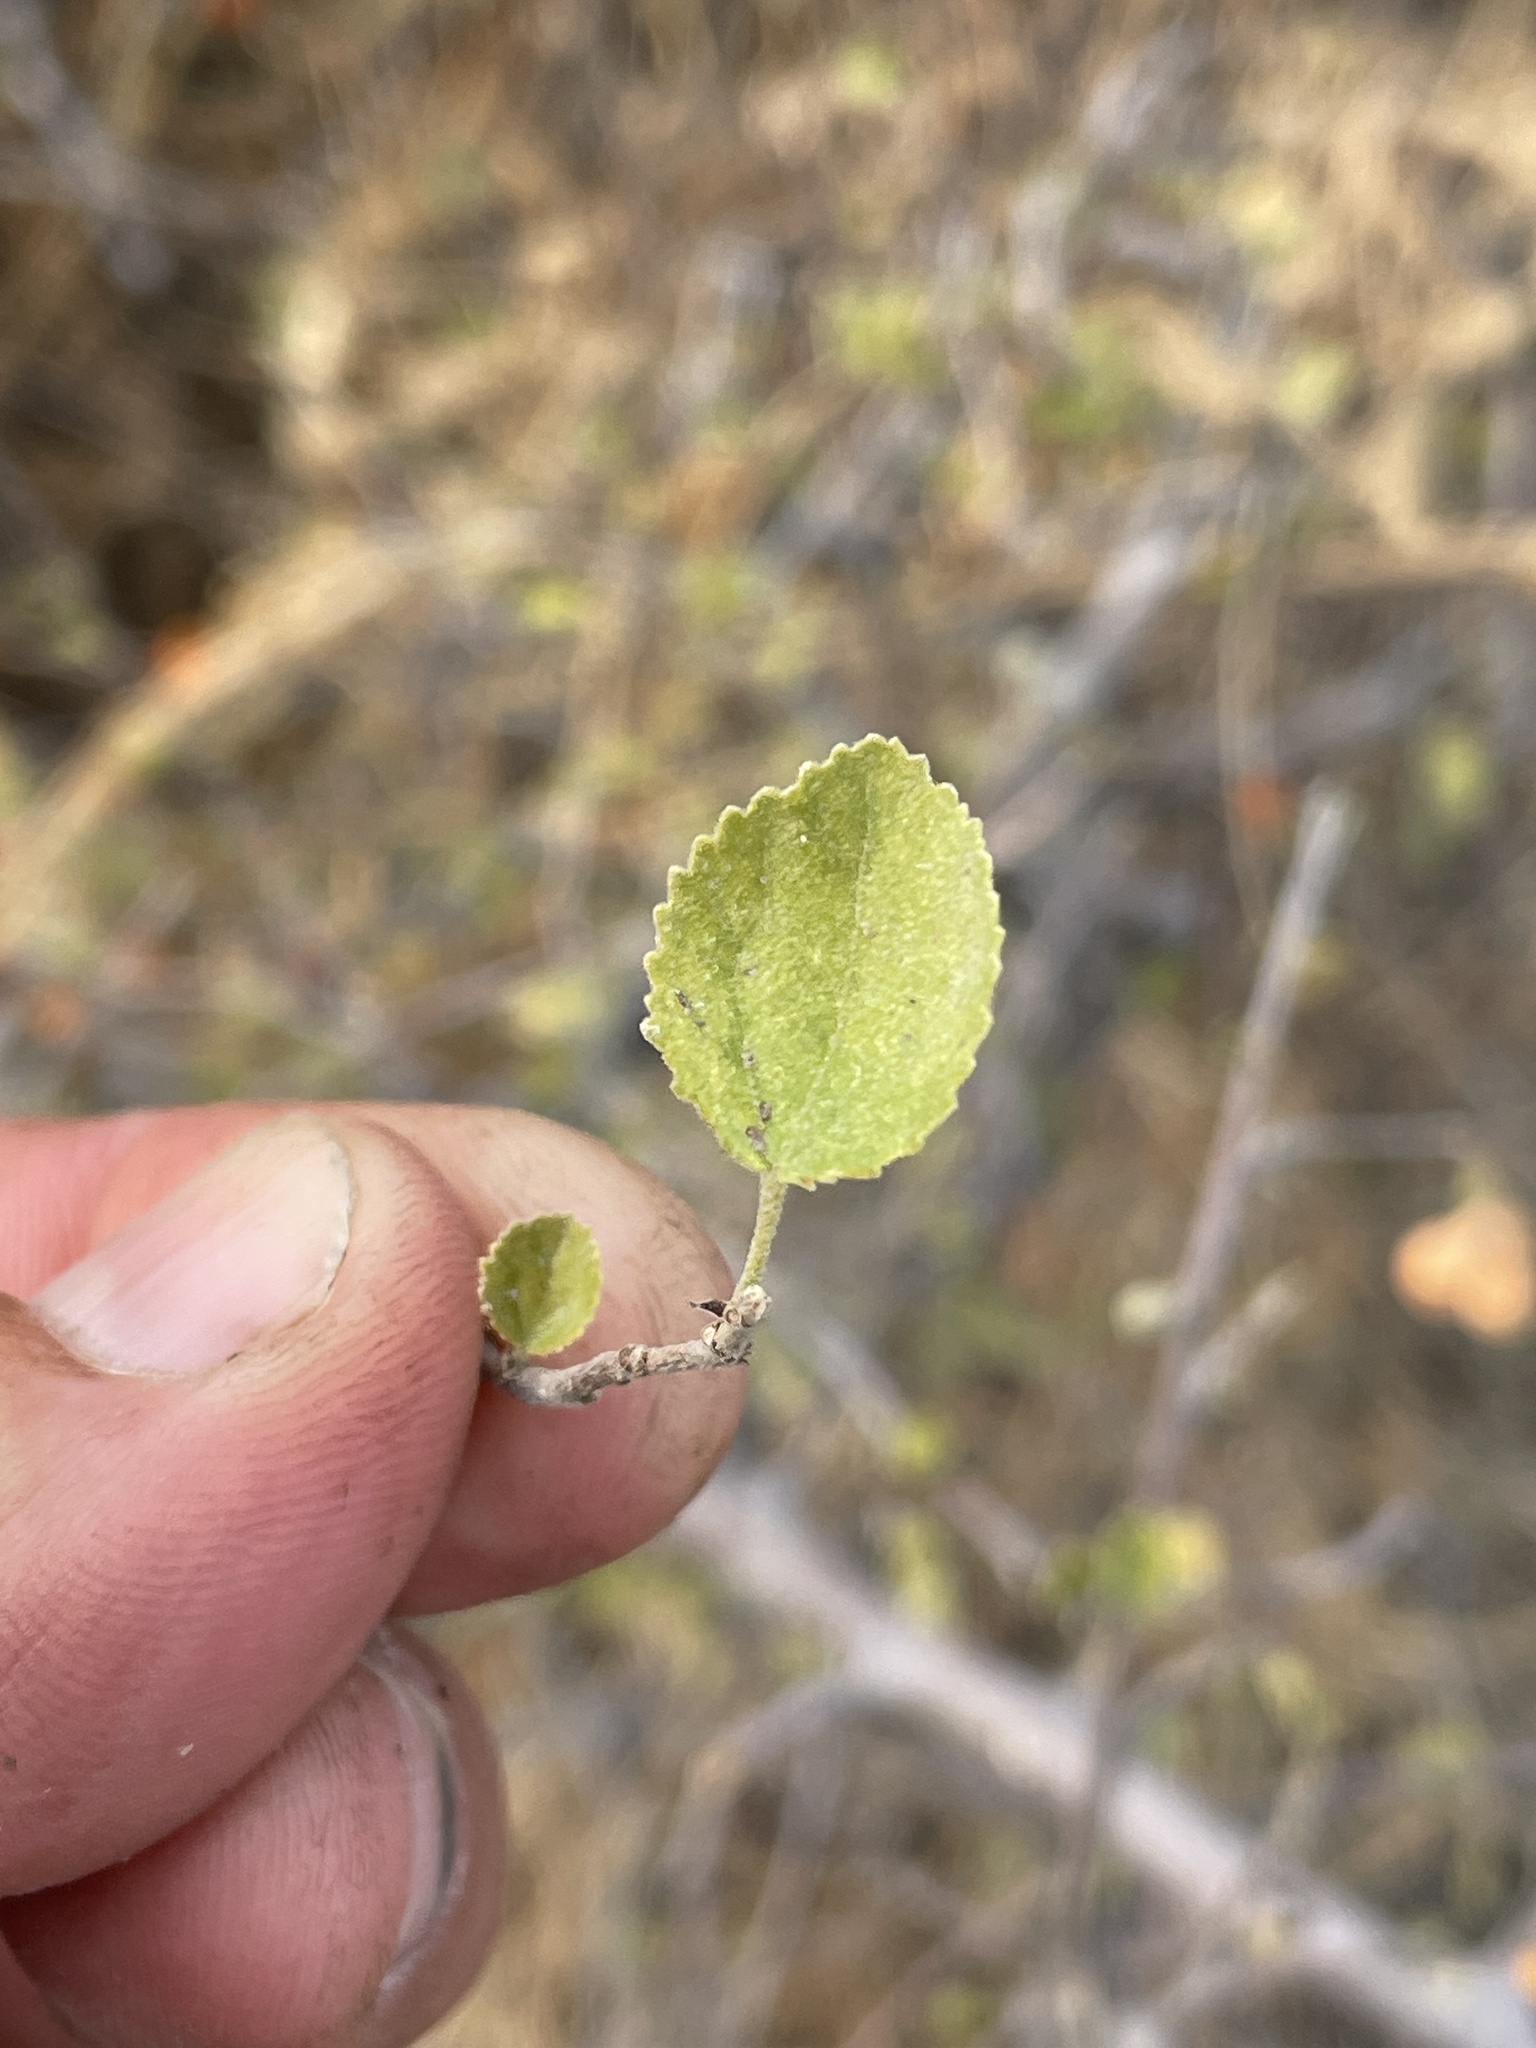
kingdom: Plantae
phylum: Tracheophyta
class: Magnoliopsida
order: Malvales
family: Malvaceae
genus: Grewia
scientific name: Grewia avellana
